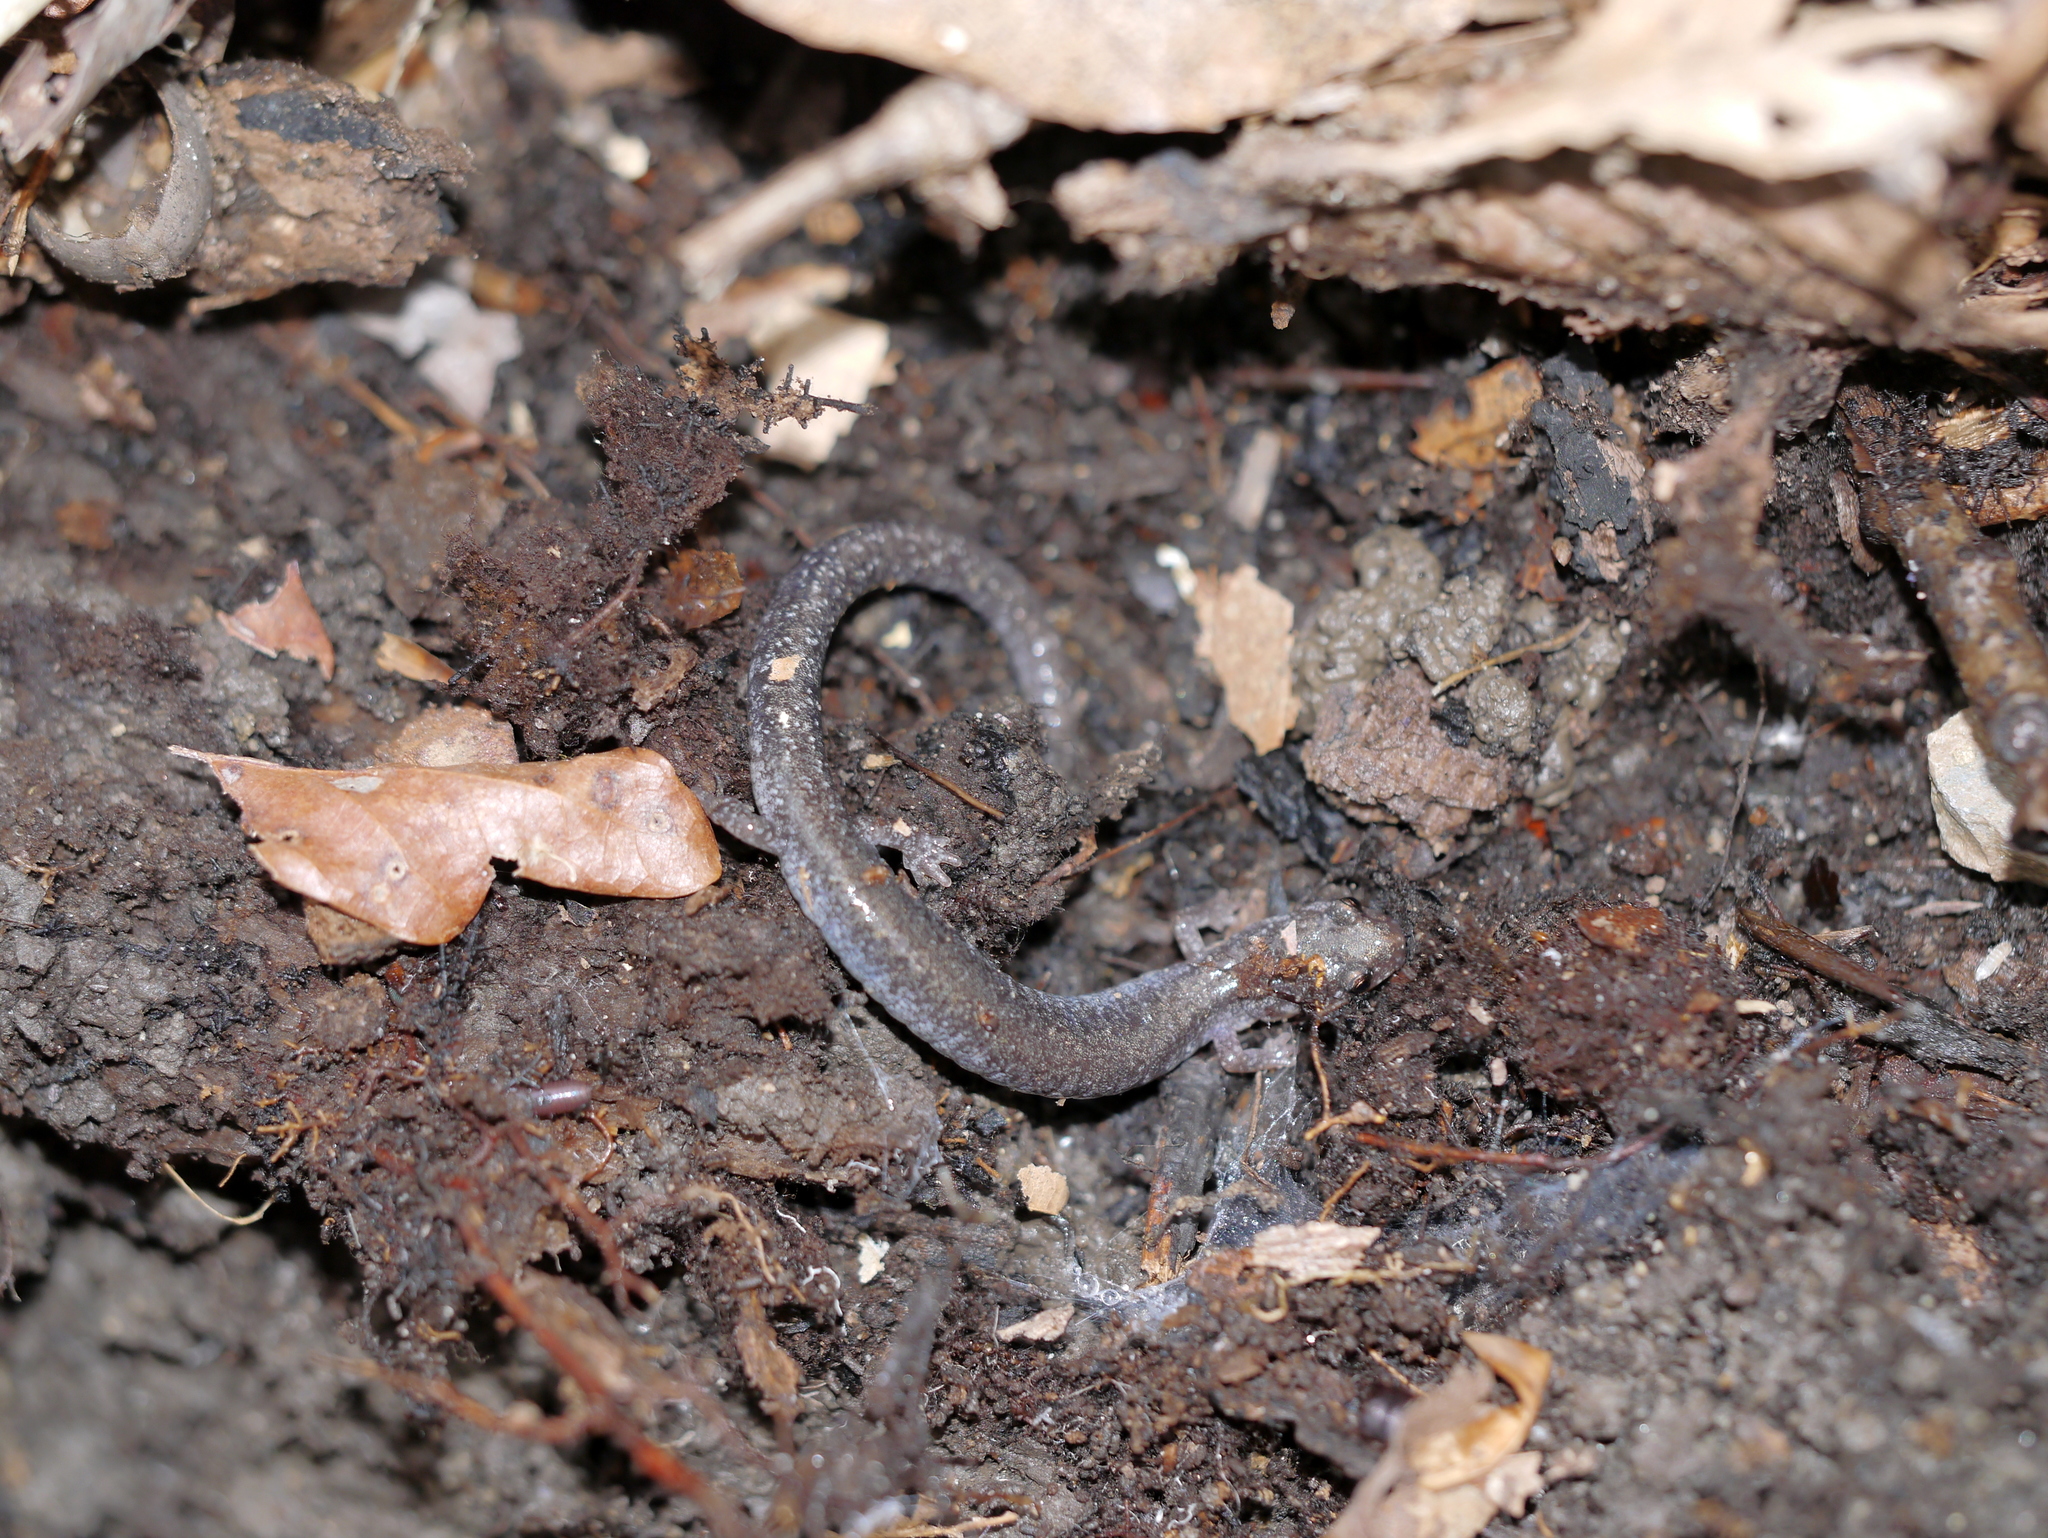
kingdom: Animalia
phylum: Chordata
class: Amphibia
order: Caudata
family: Plethodontidae
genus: Plethodon
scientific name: Plethodon cinereus
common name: Redback salamander
